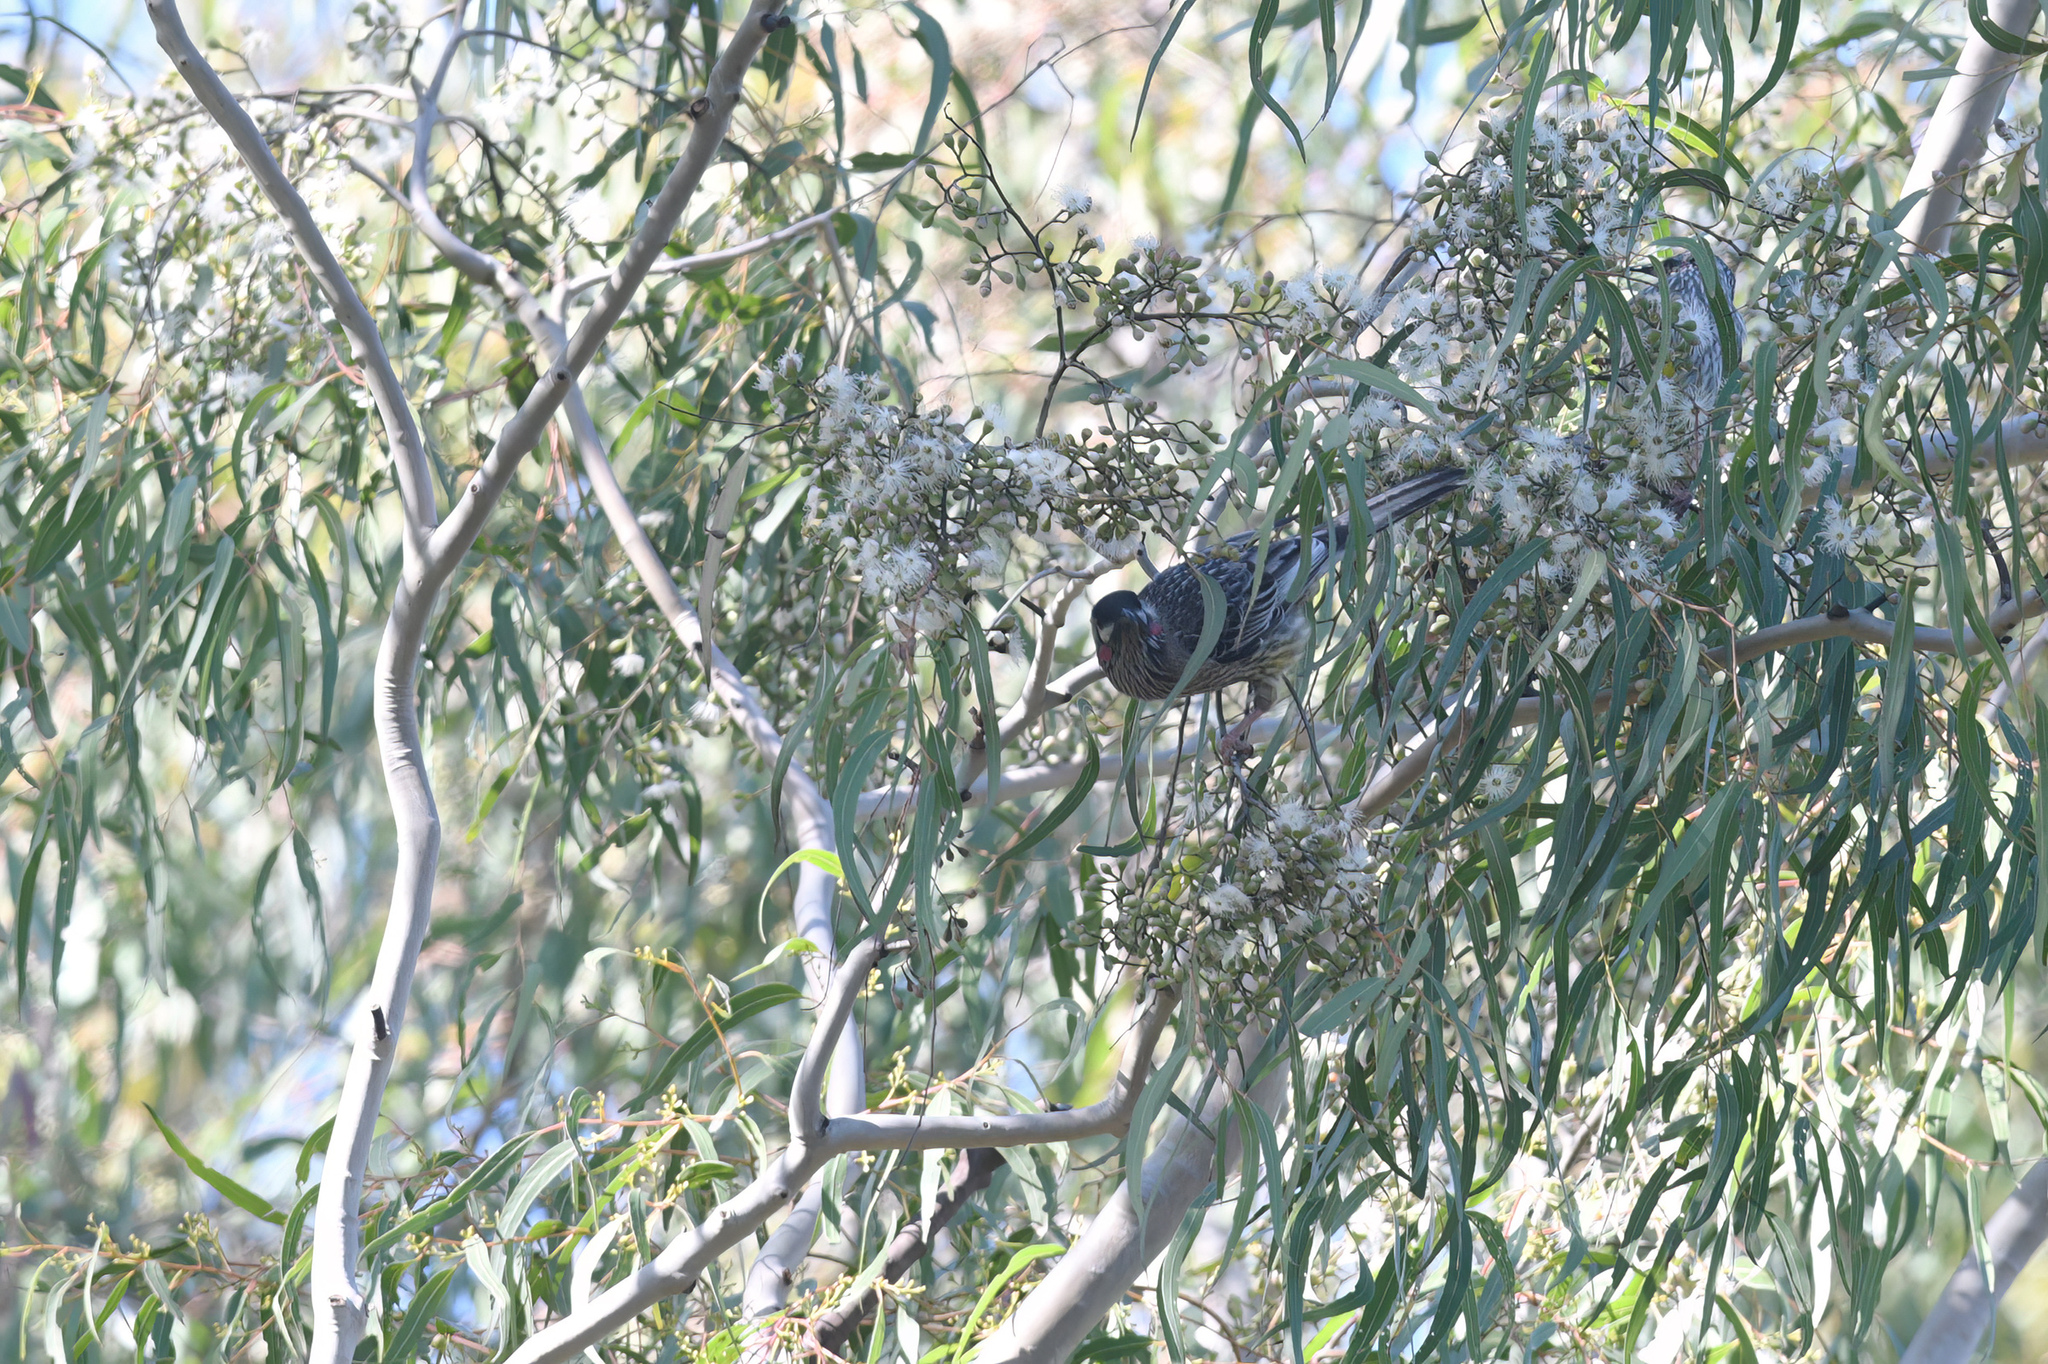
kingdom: Animalia
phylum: Chordata
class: Aves
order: Passeriformes
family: Meliphagidae
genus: Anthochaera
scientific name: Anthochaera carunculata
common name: Red wattlebird
